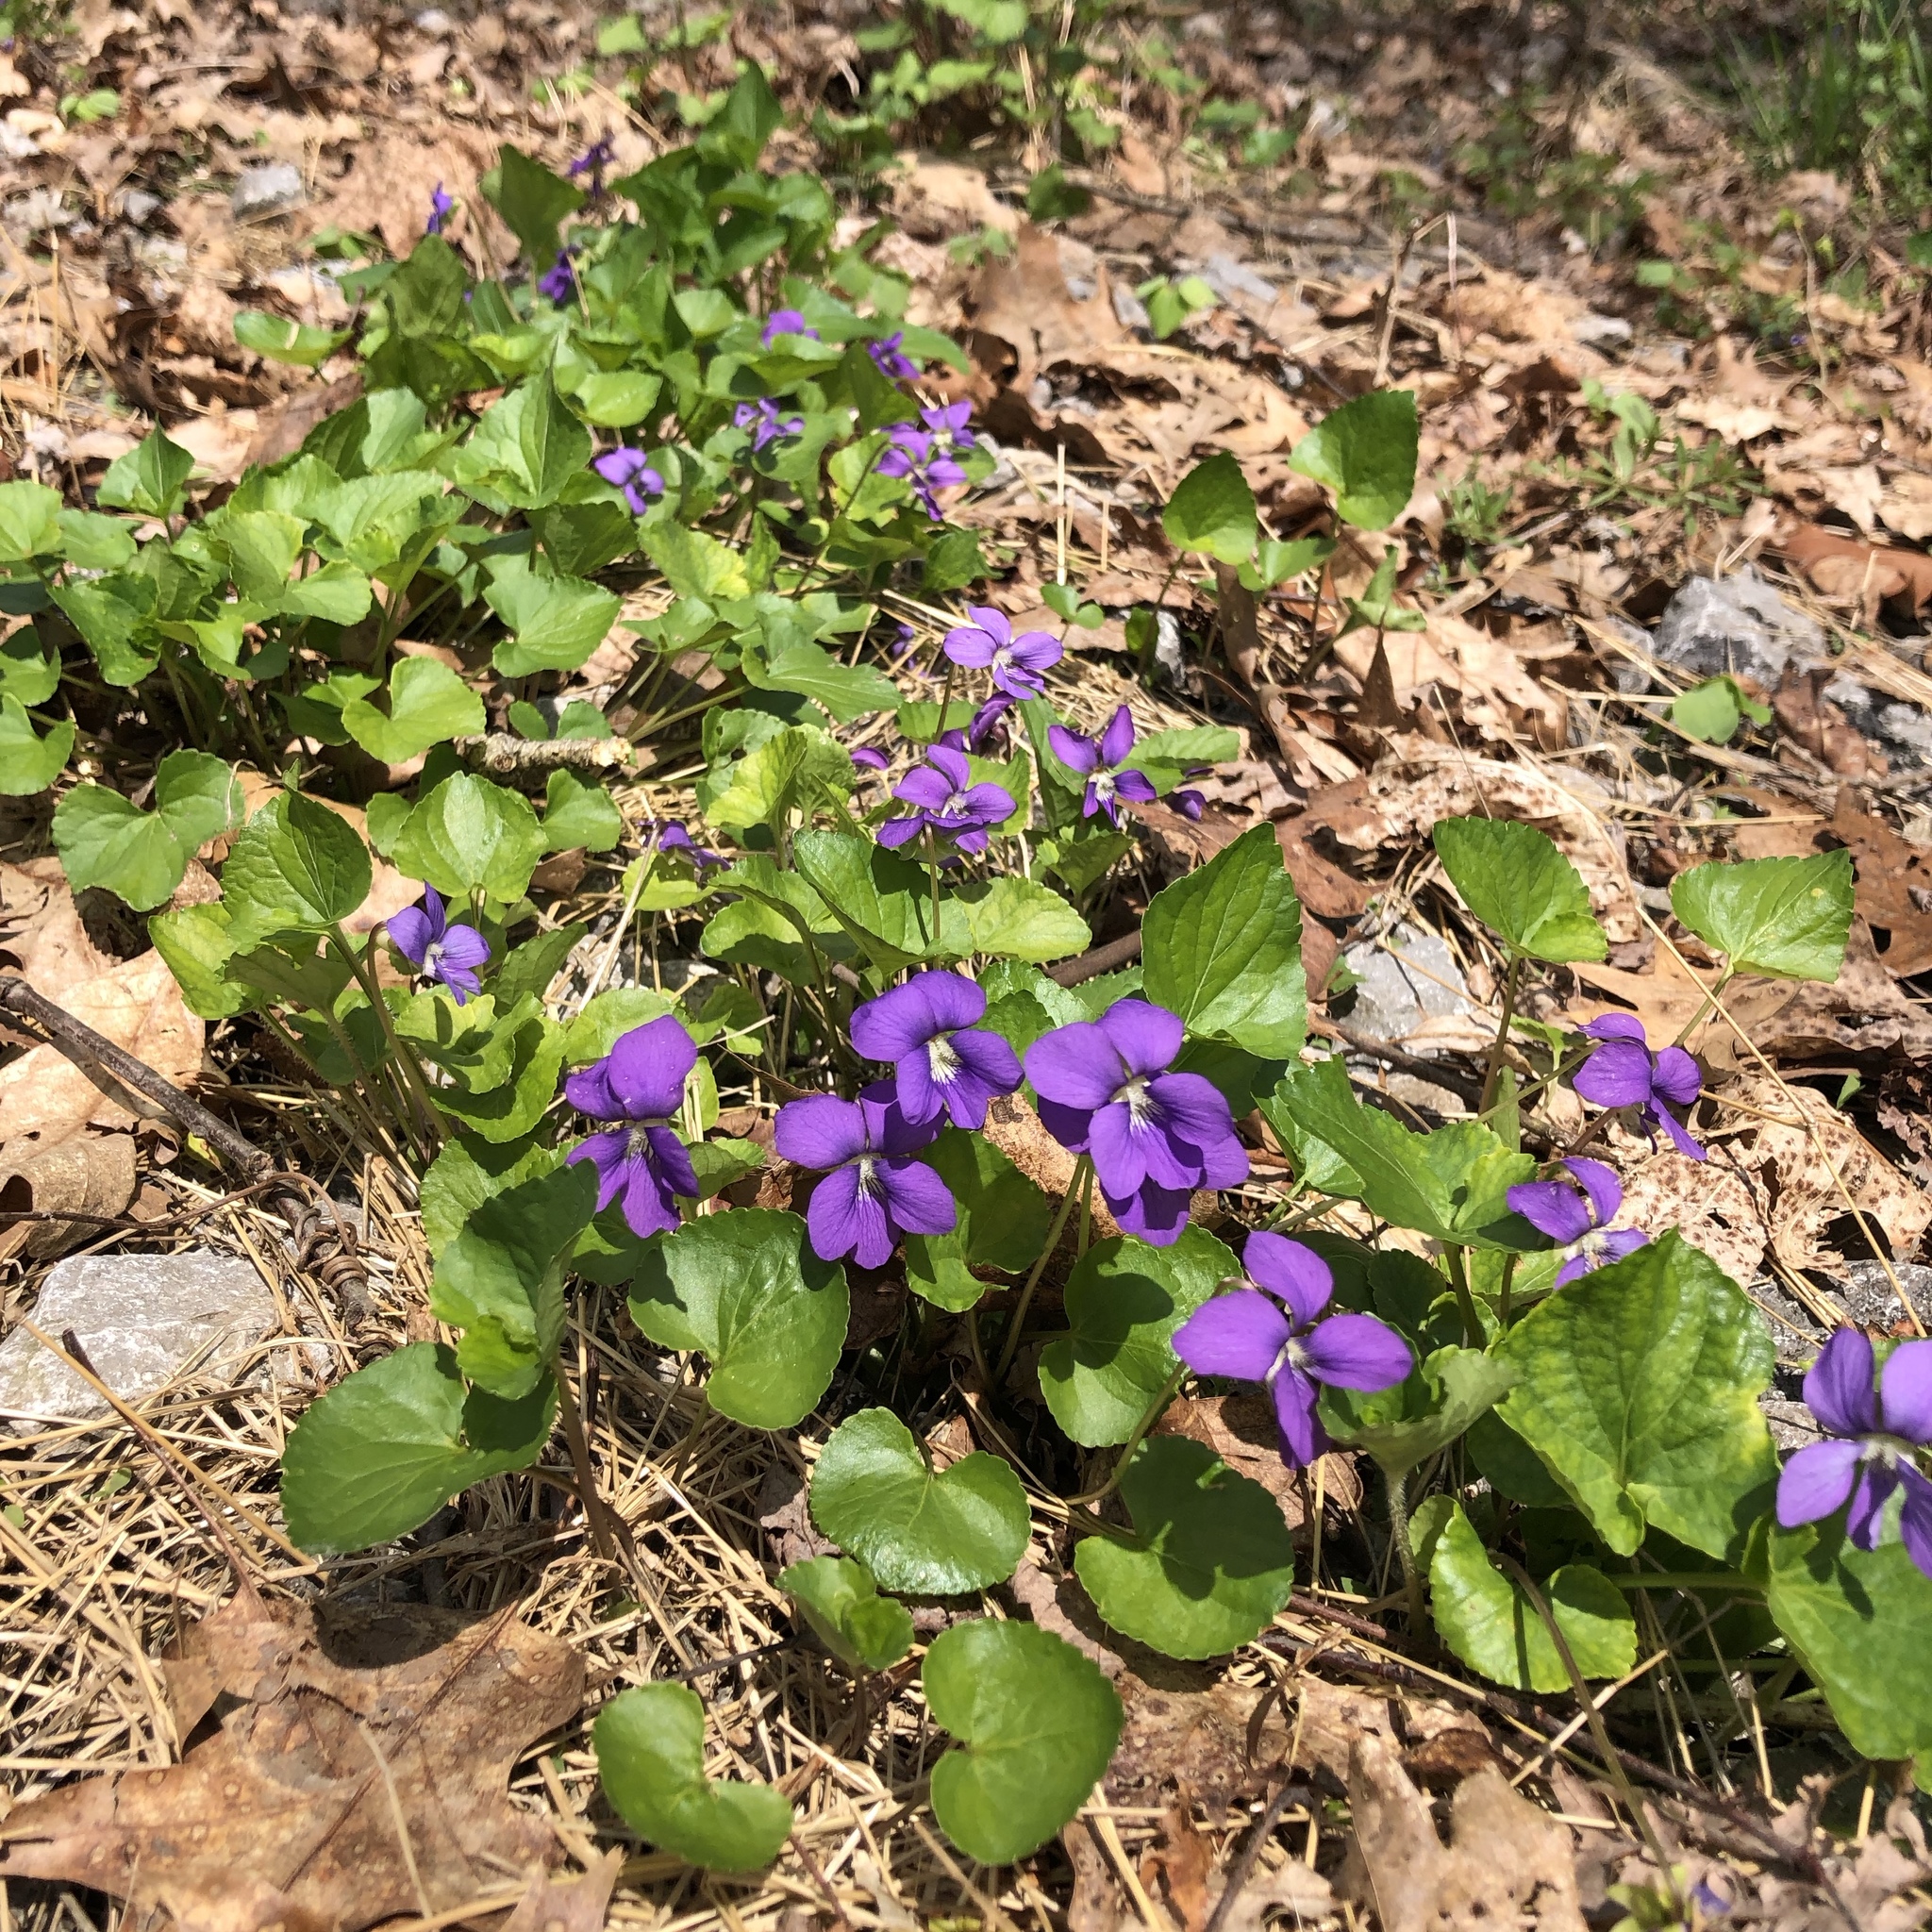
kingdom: Plantae
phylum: Tracheophyta
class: Magnoliopsida
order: Malpighiales
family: Violaceae
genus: Viola
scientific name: Viola sororia
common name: Dooryard violet
